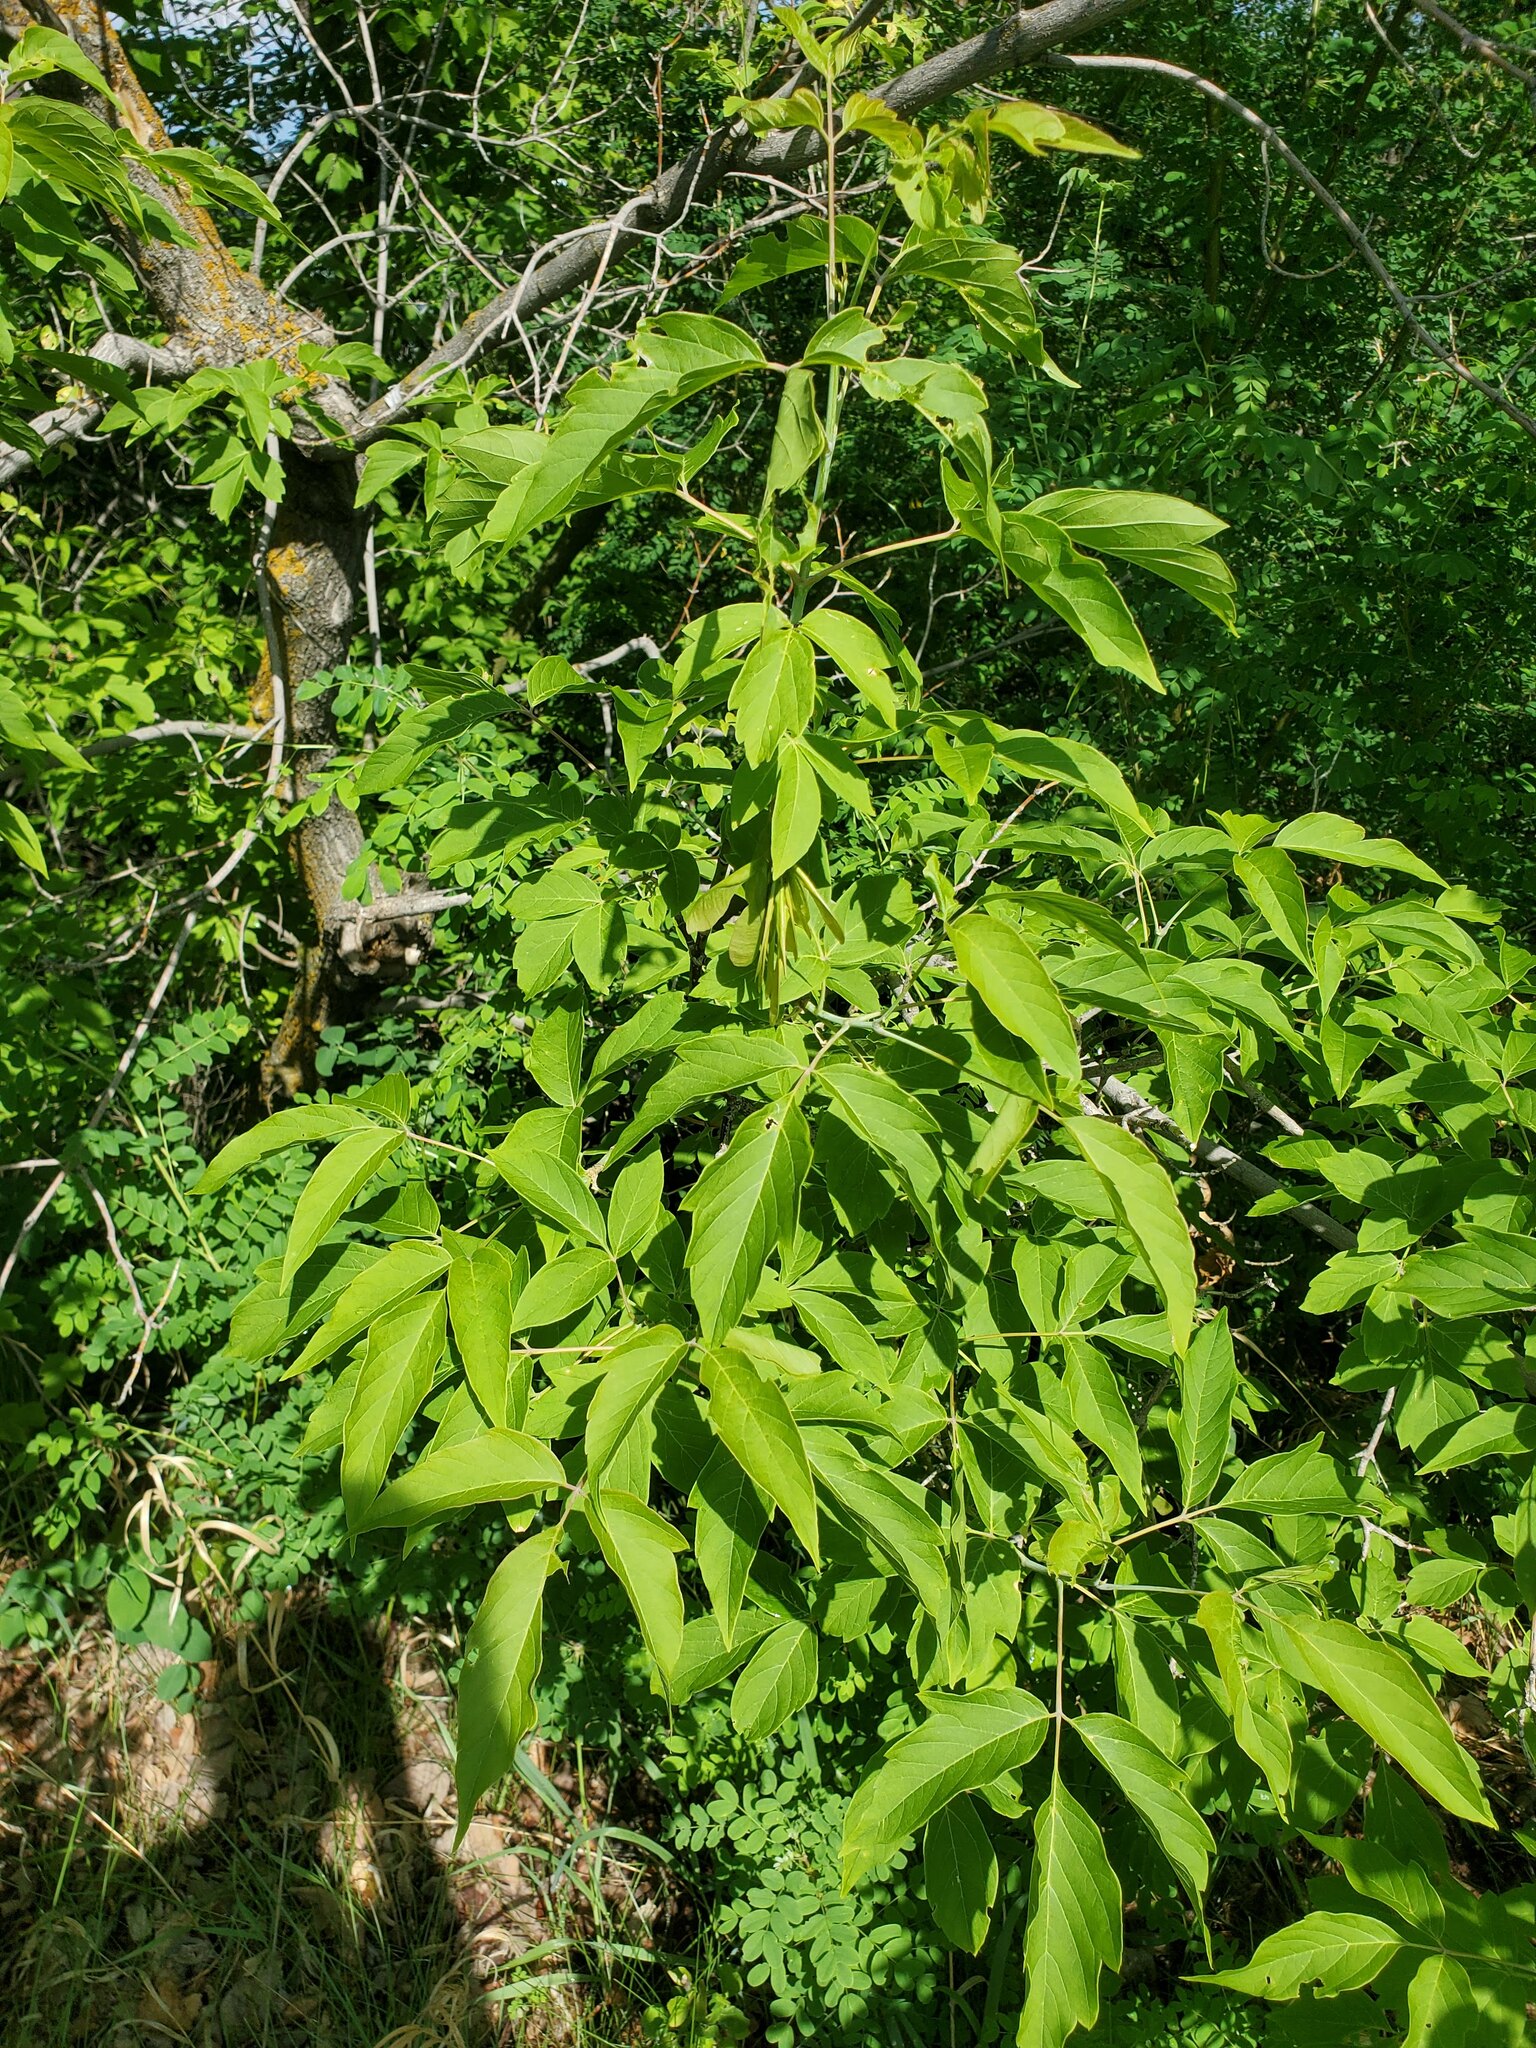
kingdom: Plantae
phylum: Tracheophyta
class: Magnoliopsida
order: Sapindales
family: Sapindaceae
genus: Acer
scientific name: Acer negundo
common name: Ashleaf maple
